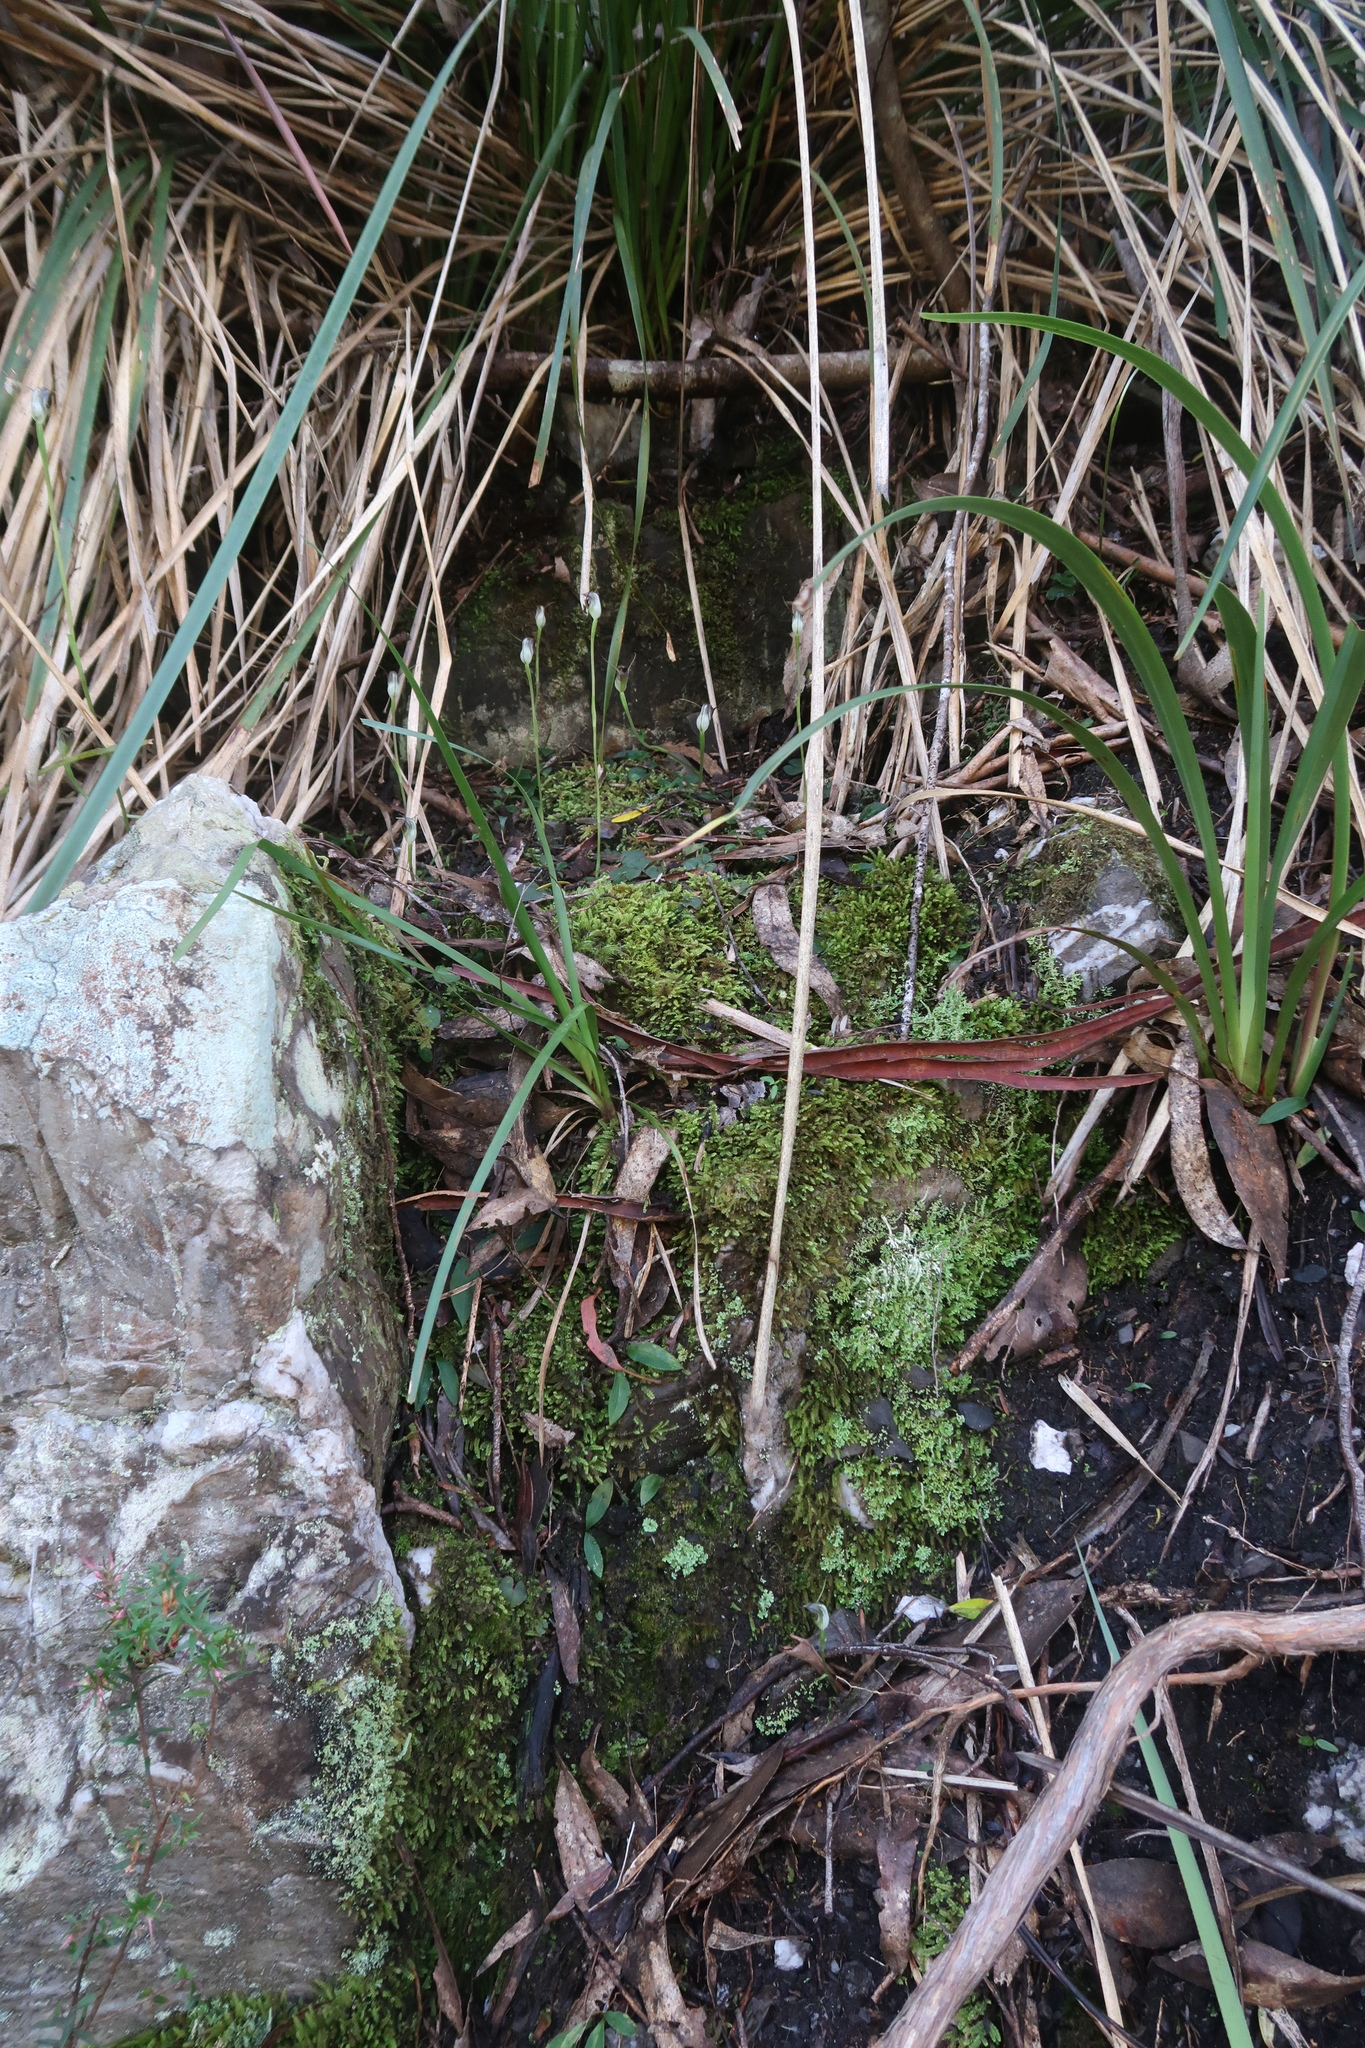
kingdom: Plantae
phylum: Tracheophyta
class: Liliopsida
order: Asparagales
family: Orchidaceae
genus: Pterostylis
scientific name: Pterostylis pedunculata
